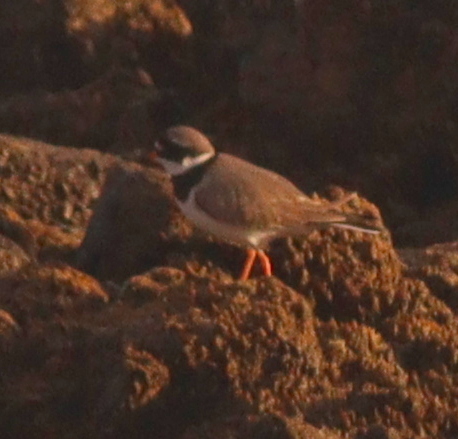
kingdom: Animalia
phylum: Chordata
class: Aves
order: Charadriiformes
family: Charadriidae
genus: Charadrius
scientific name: Charadrius hiaticula
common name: Common ringed plover
